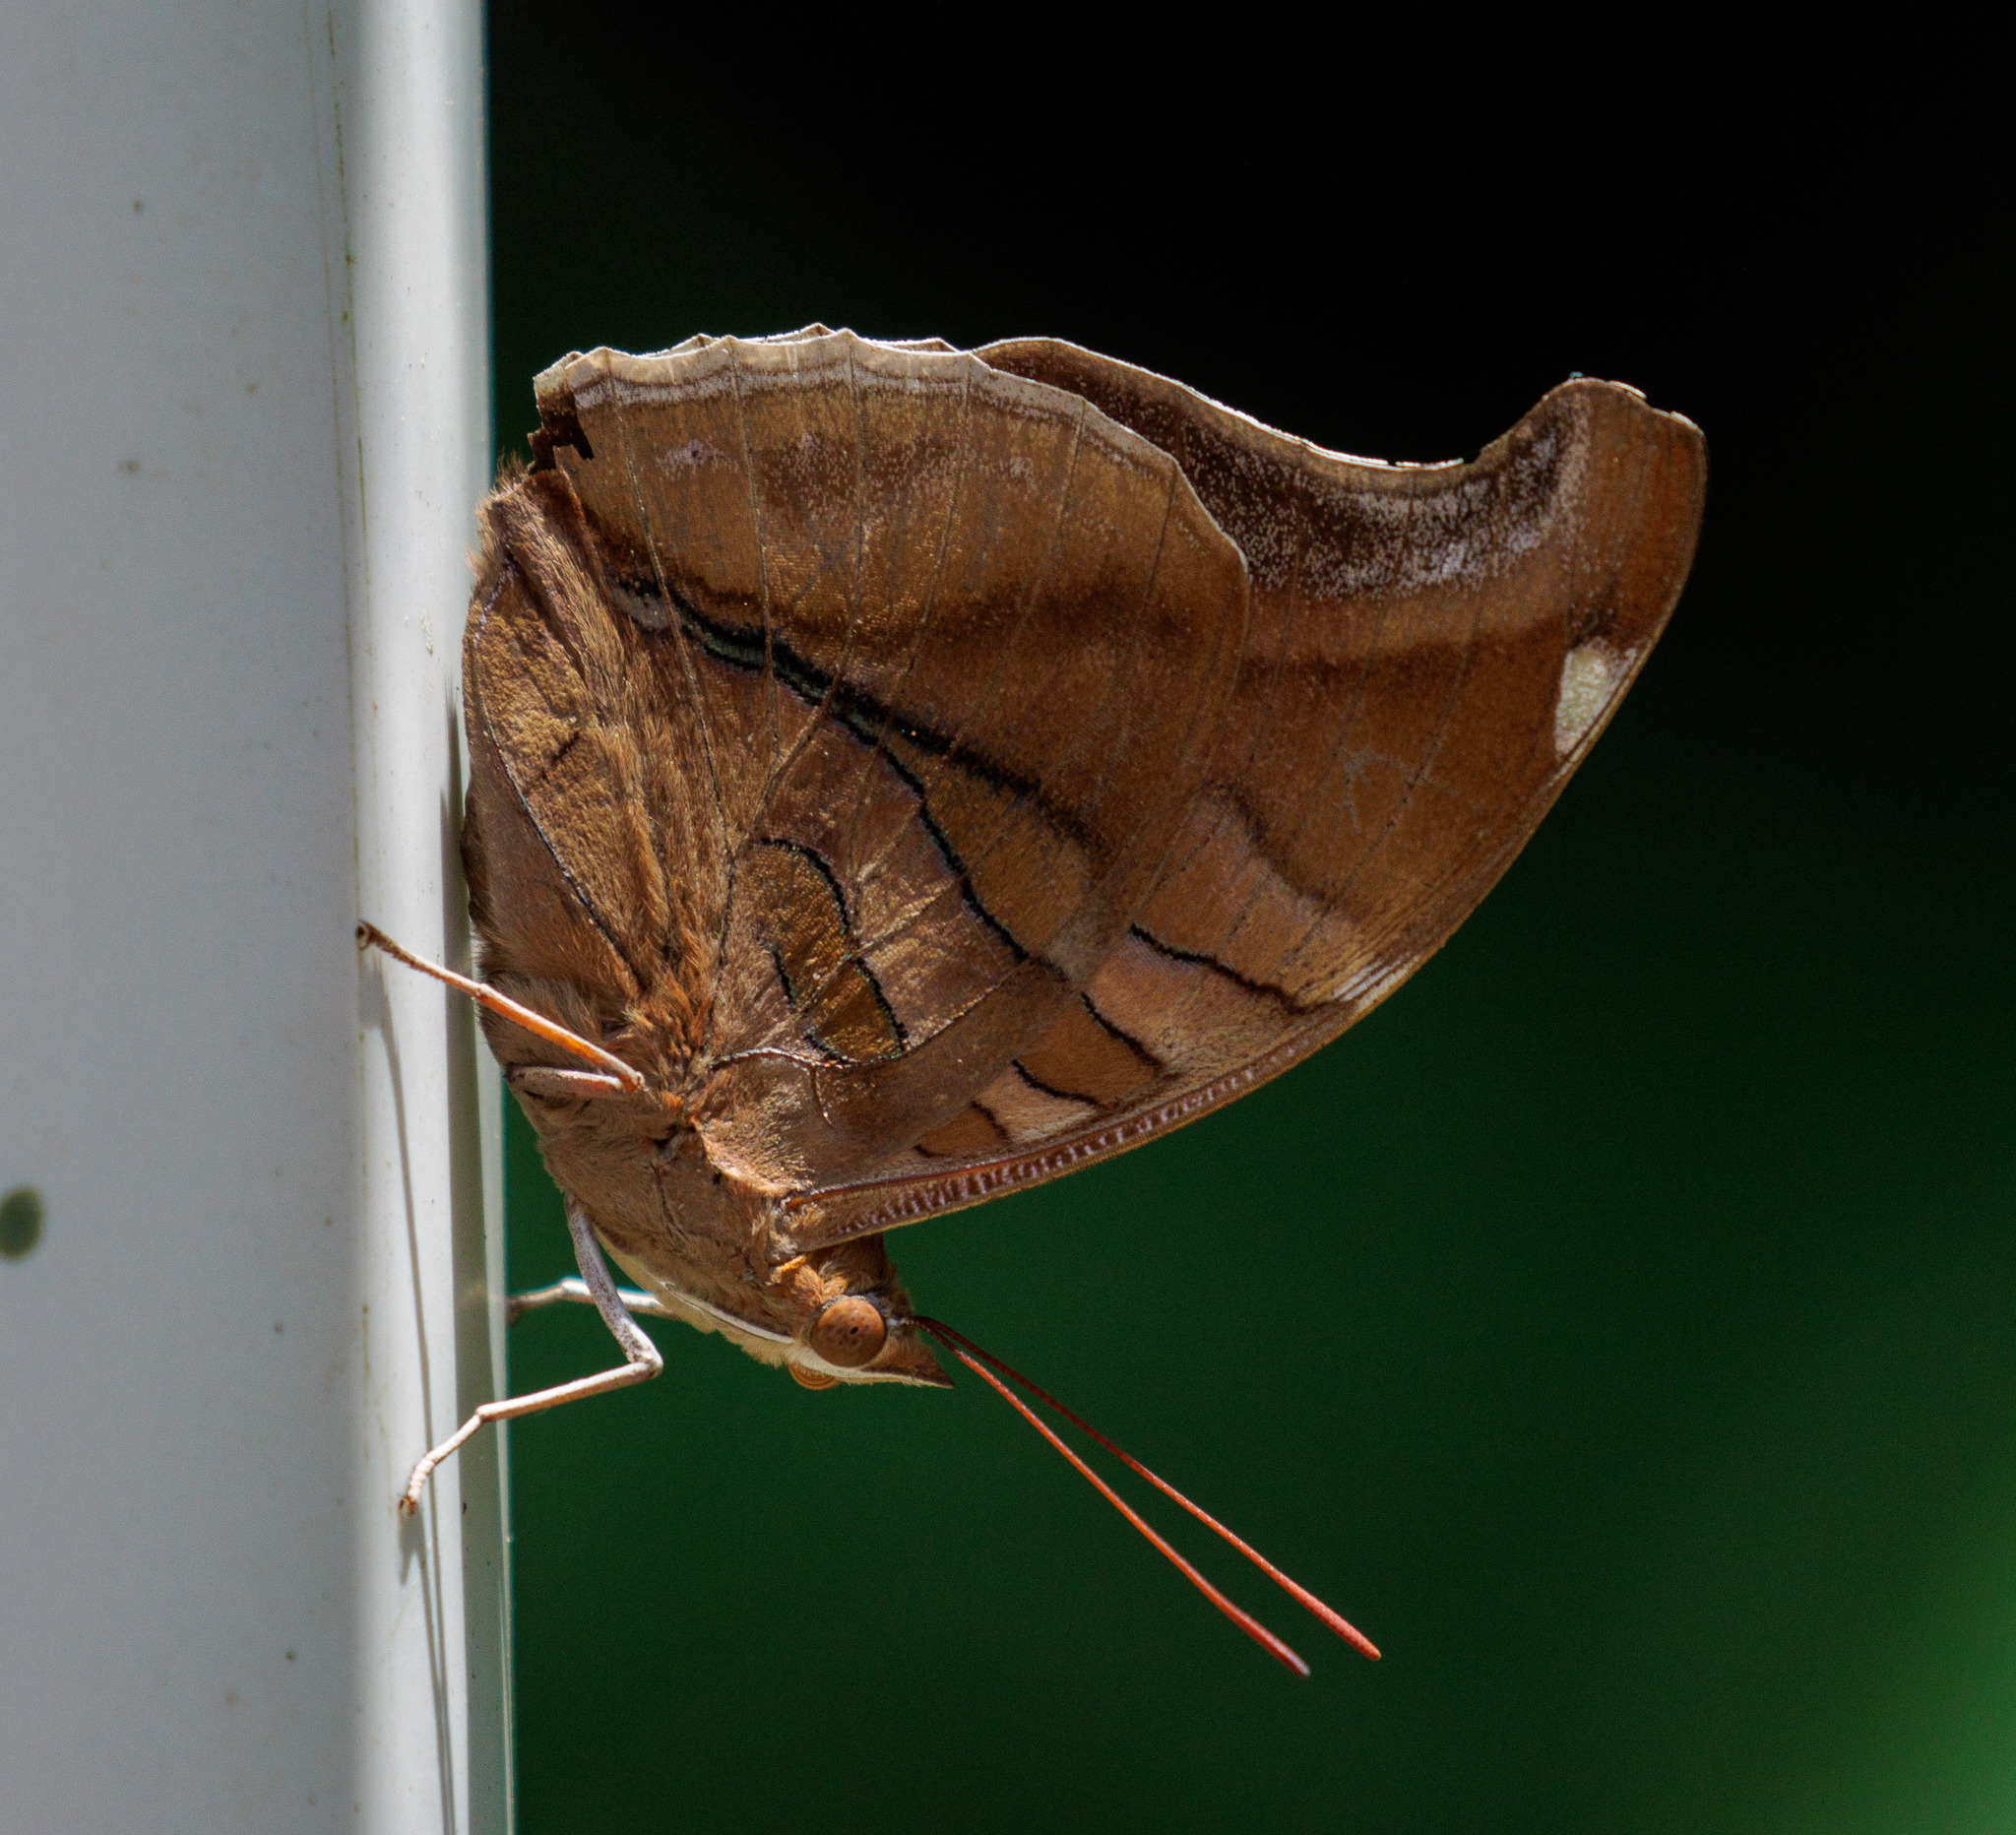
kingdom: Animalia
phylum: Arthropoda
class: Insecta
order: Lepidoptera
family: Nymphalidae
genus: Historis
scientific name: Historis odius
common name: Orion cecropian
